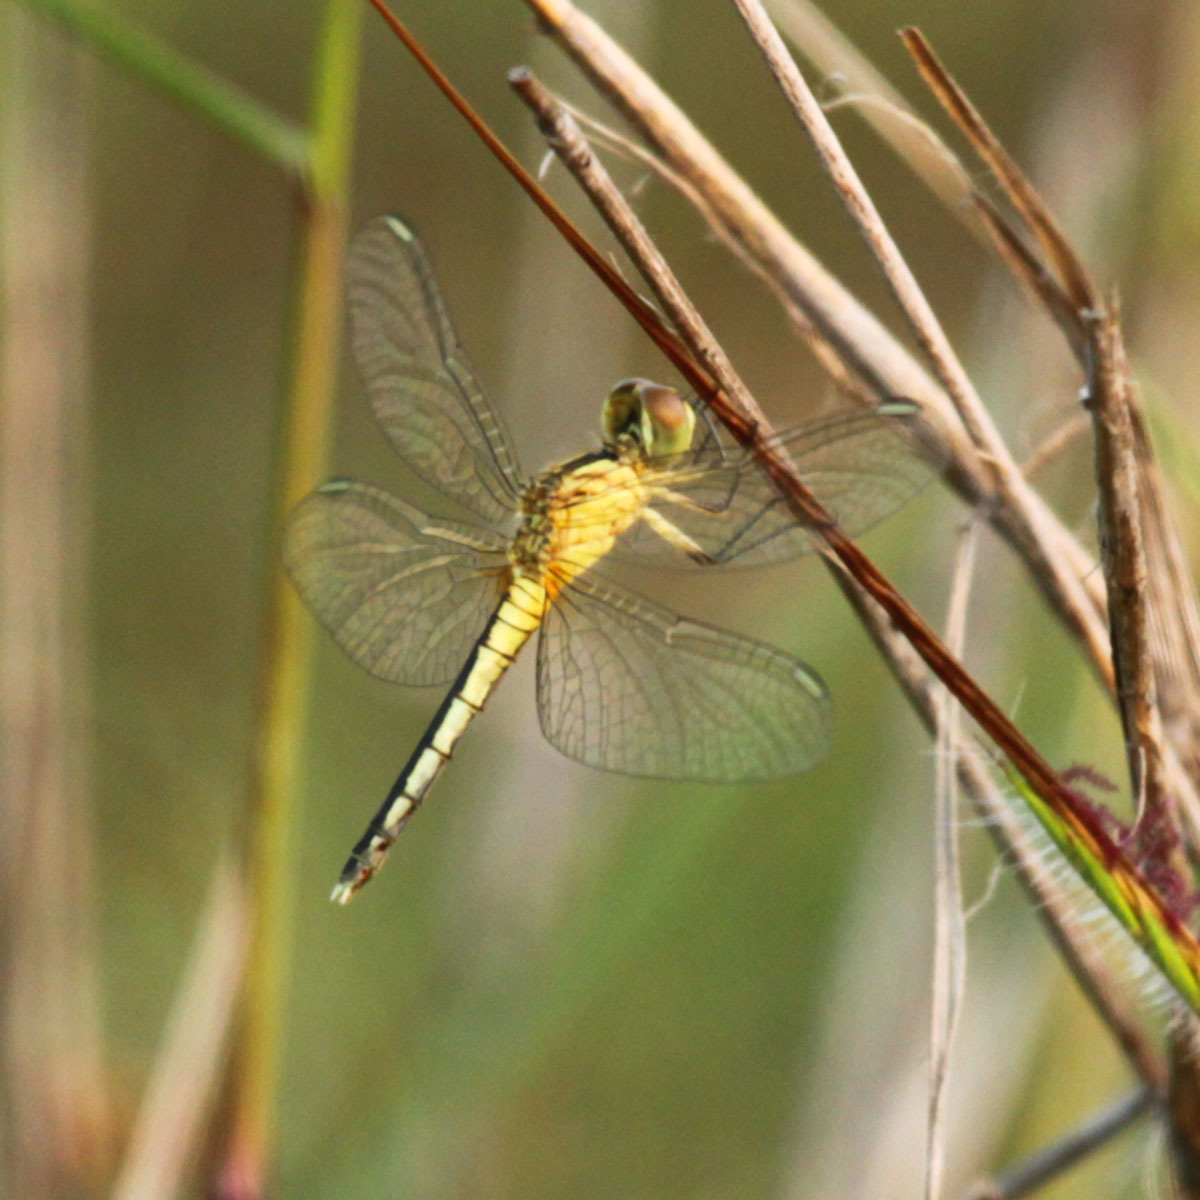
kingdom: Animalia
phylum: Arthropoda
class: Insecta
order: Odonata
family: Libellulidae
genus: Diplacodes
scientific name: Diplacodes nebulosa
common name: Black-tipped percher
